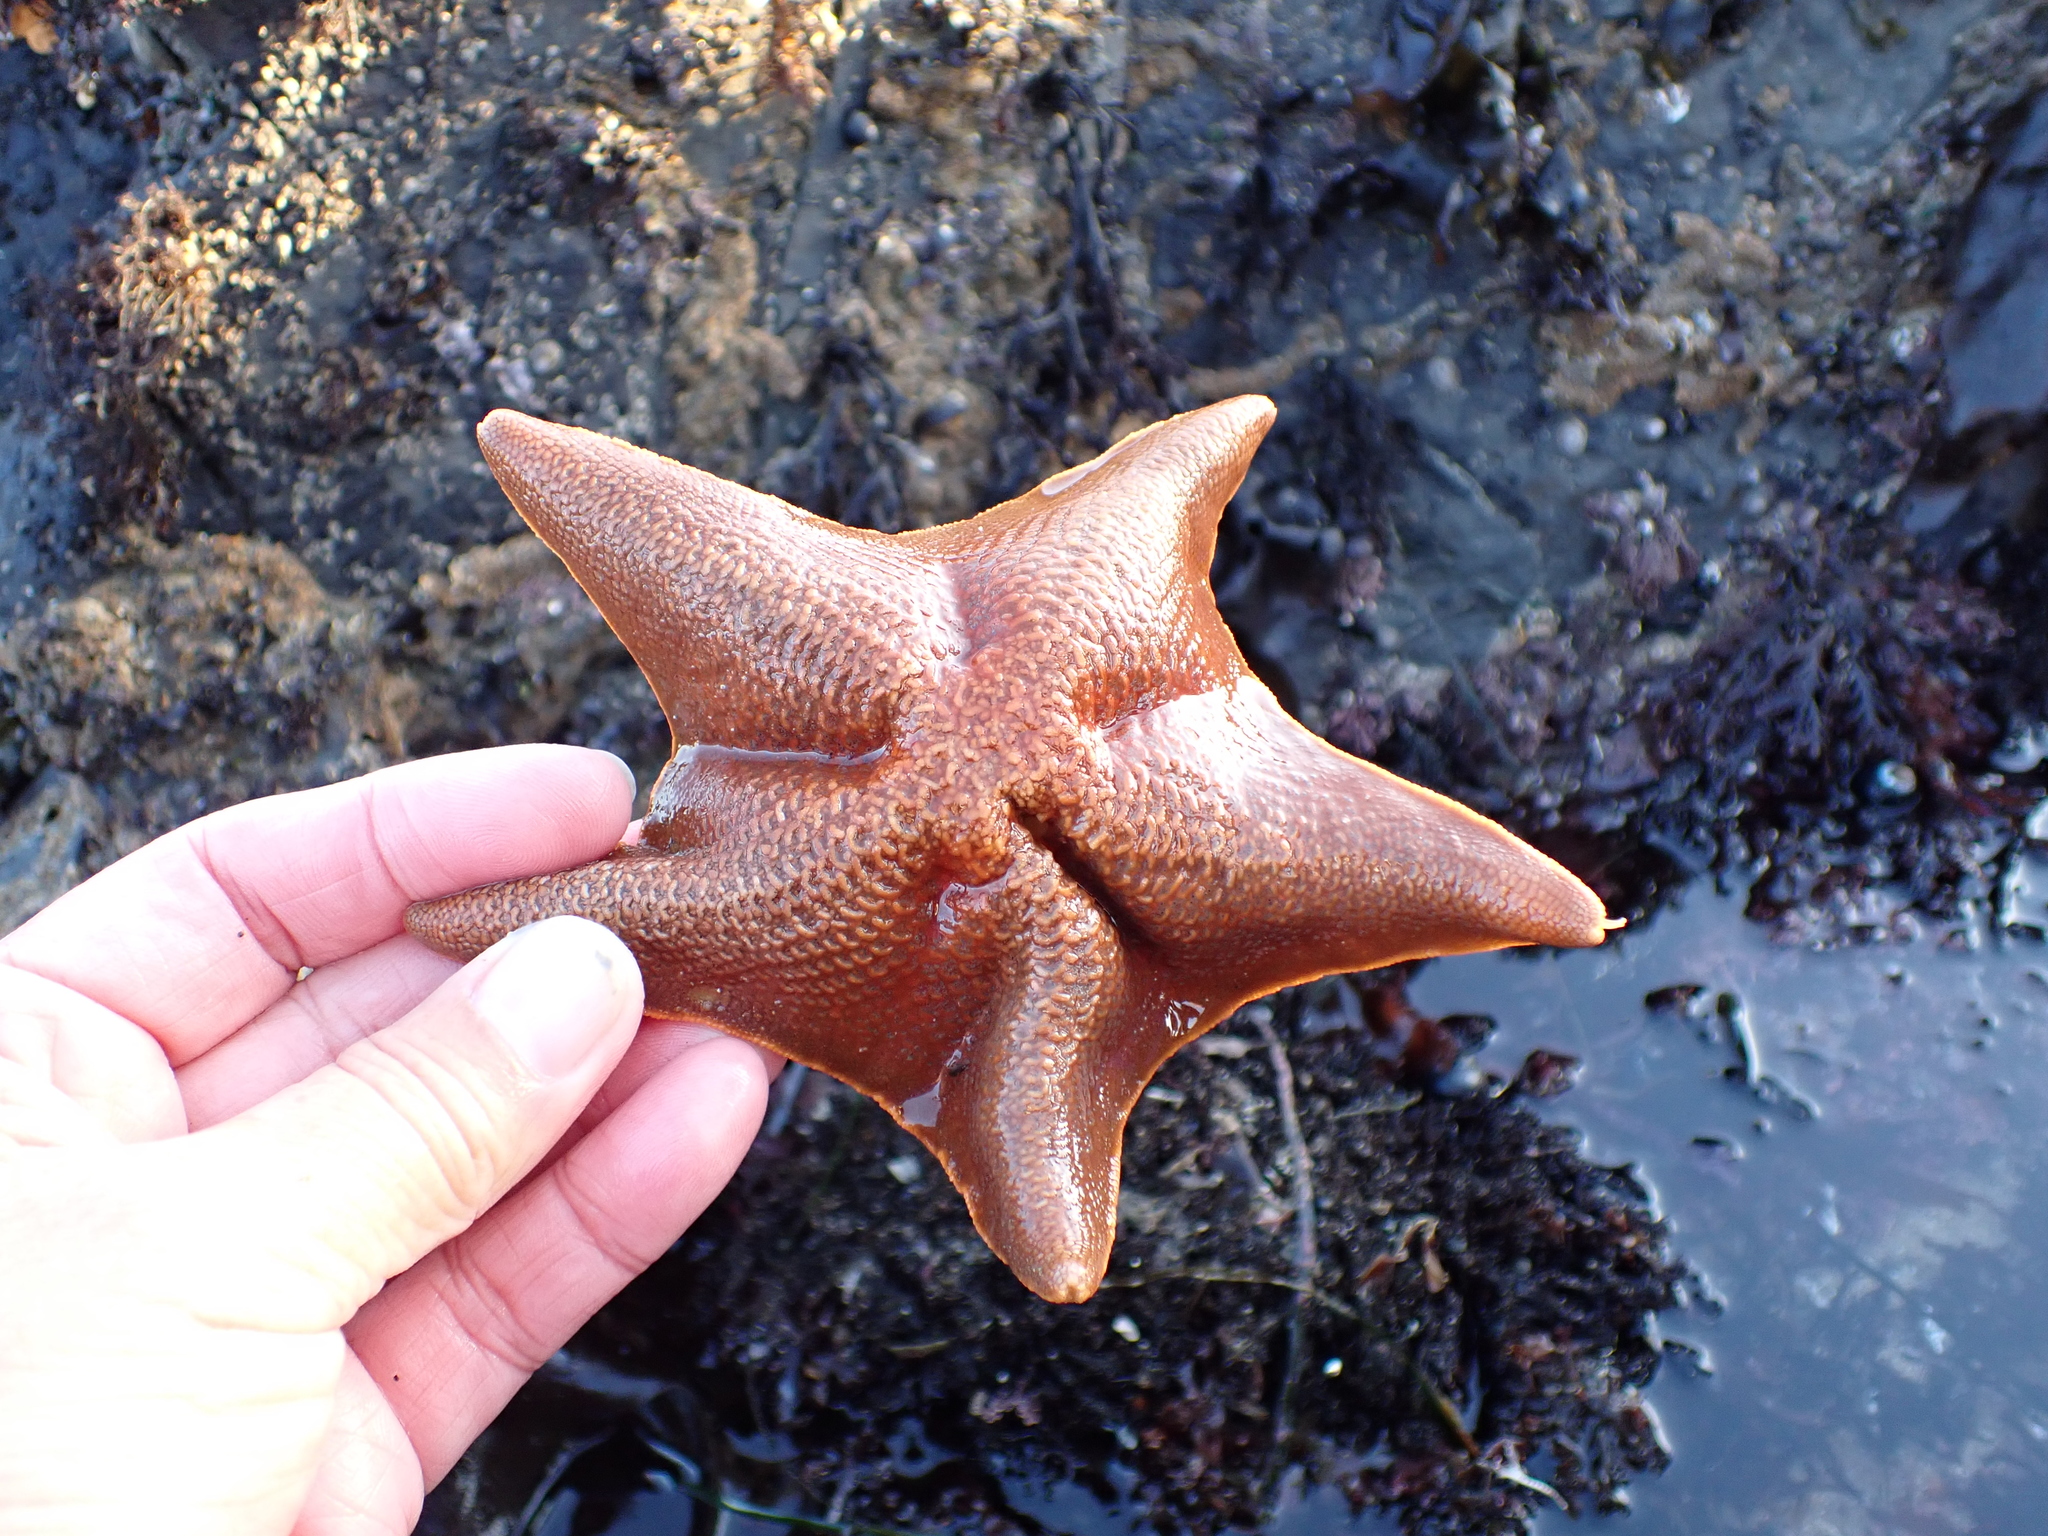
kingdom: Animalia
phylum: Echinodermata
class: Asteroidea
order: Valvatida
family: Asterinidae
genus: Patiria
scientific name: Patiria miniata
